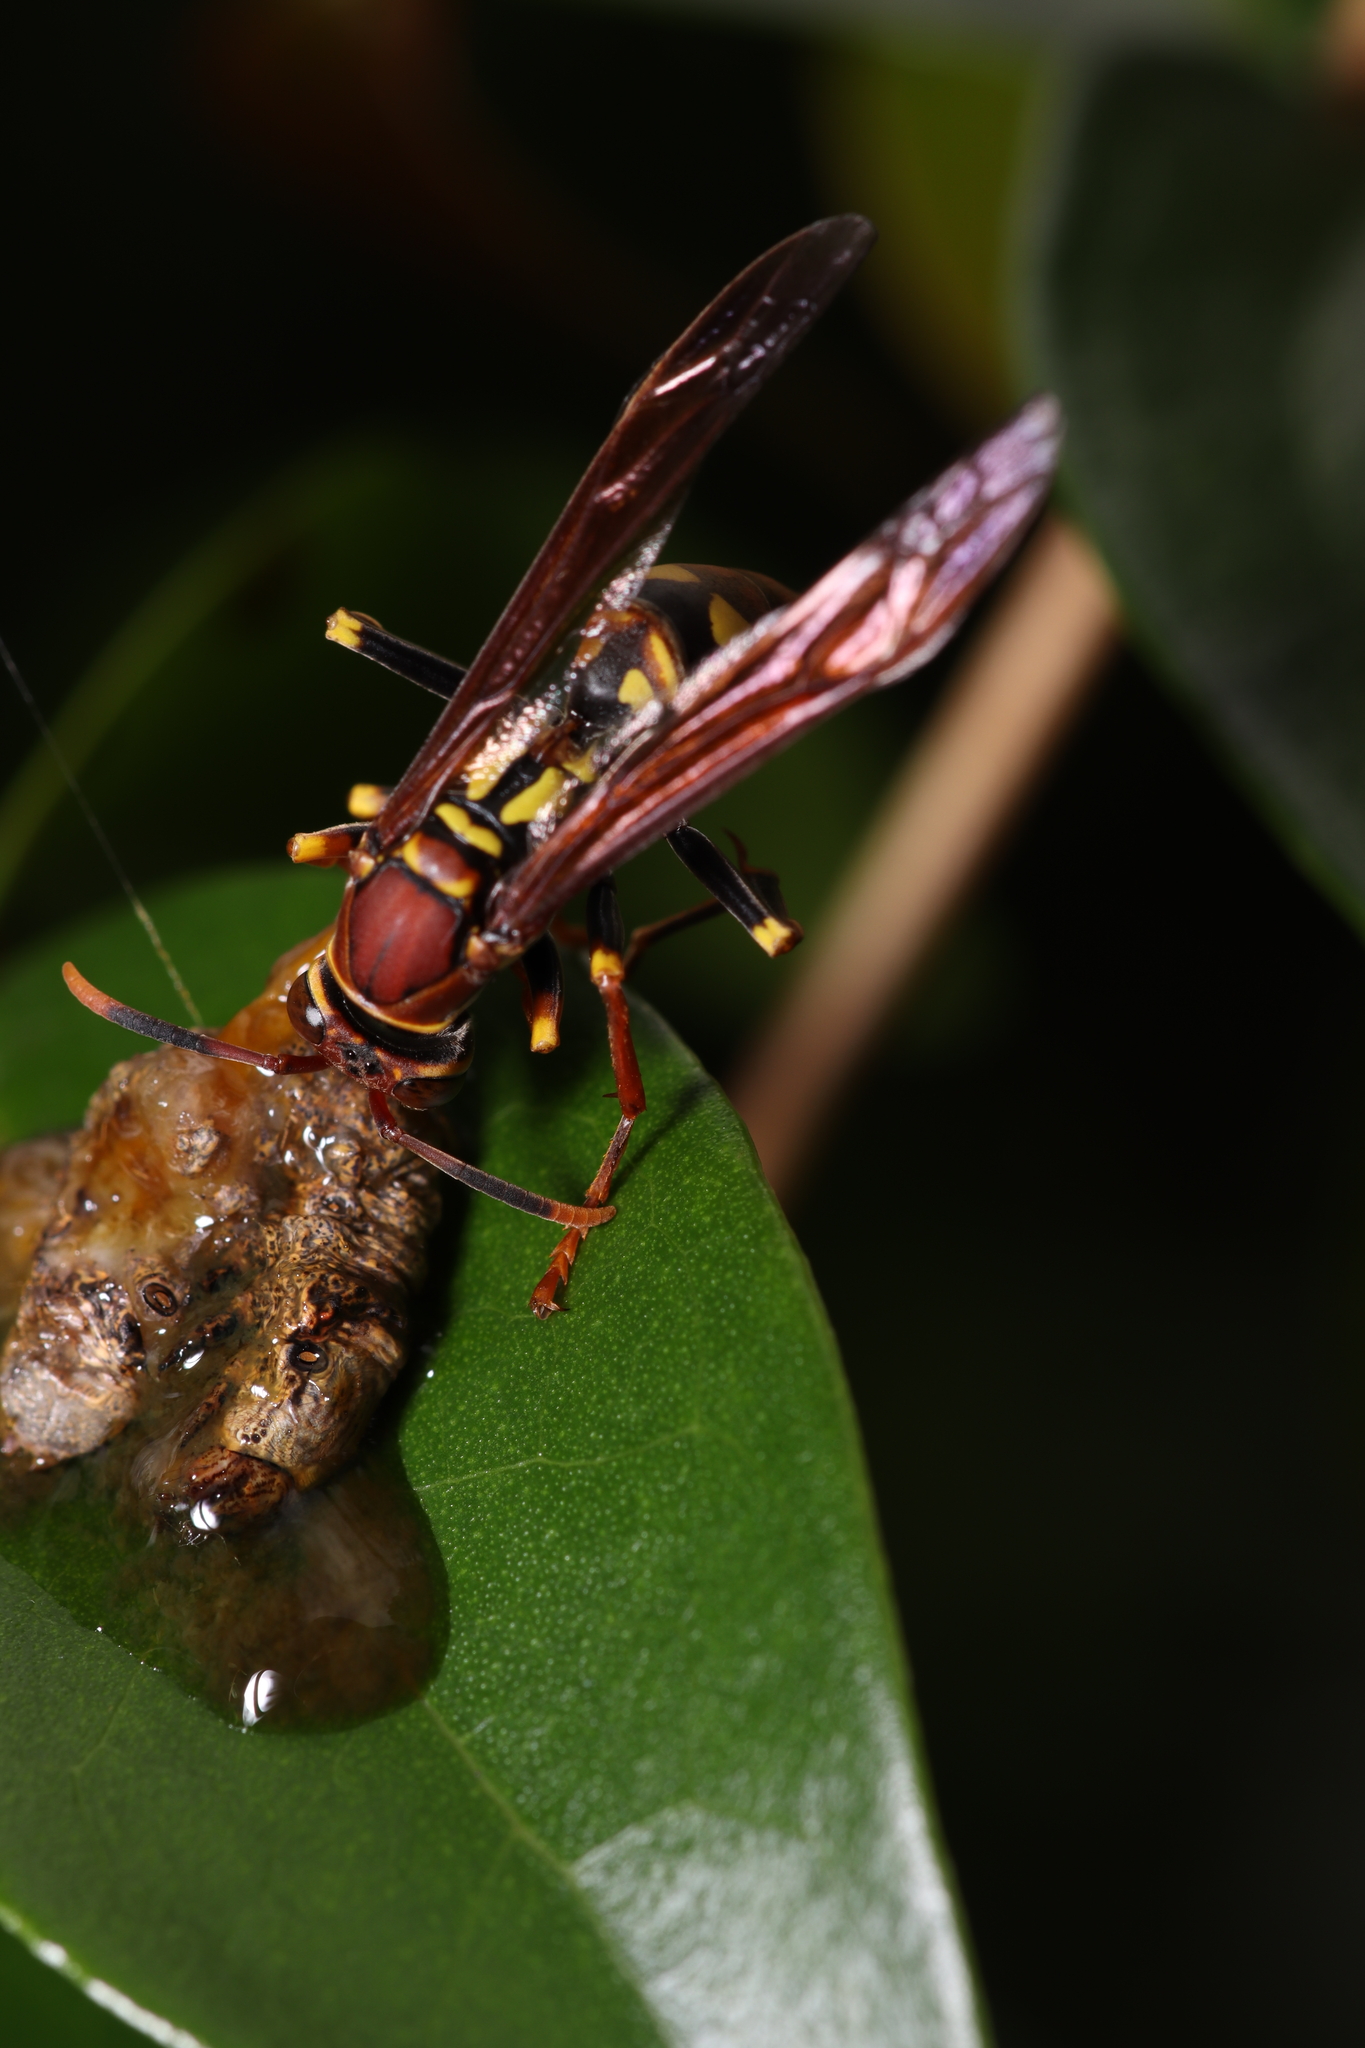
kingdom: Animalia
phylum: Arthropoda
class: Insecta
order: Hymenoptera
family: Eumenidae
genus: Polistes
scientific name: Polistes versicolor
